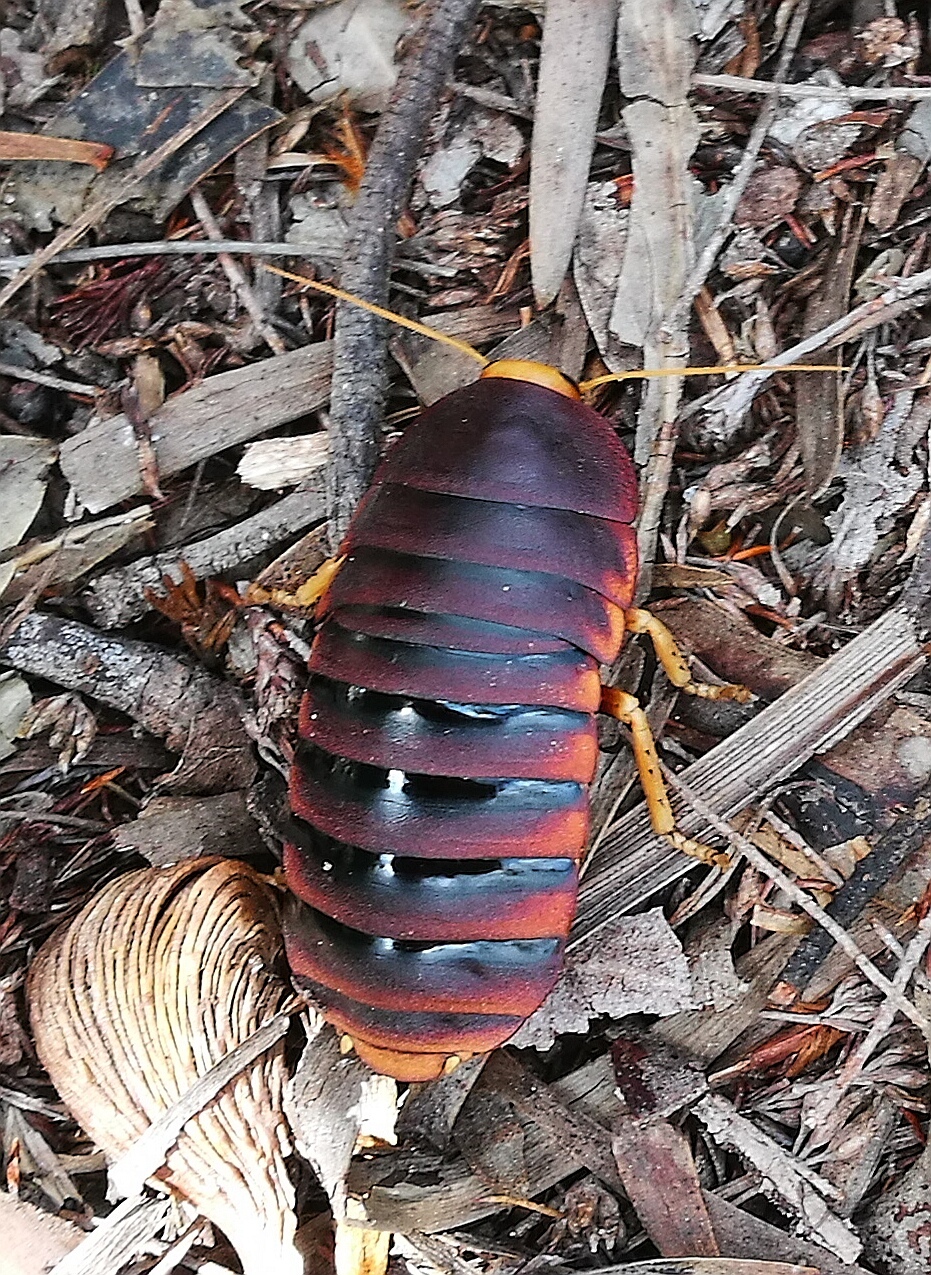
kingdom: Animalia
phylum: Arthropoda
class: Insecta
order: Blattodea
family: Blaberidae
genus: Aptera
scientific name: Aptera fusca
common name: Cape mountain cockroach
